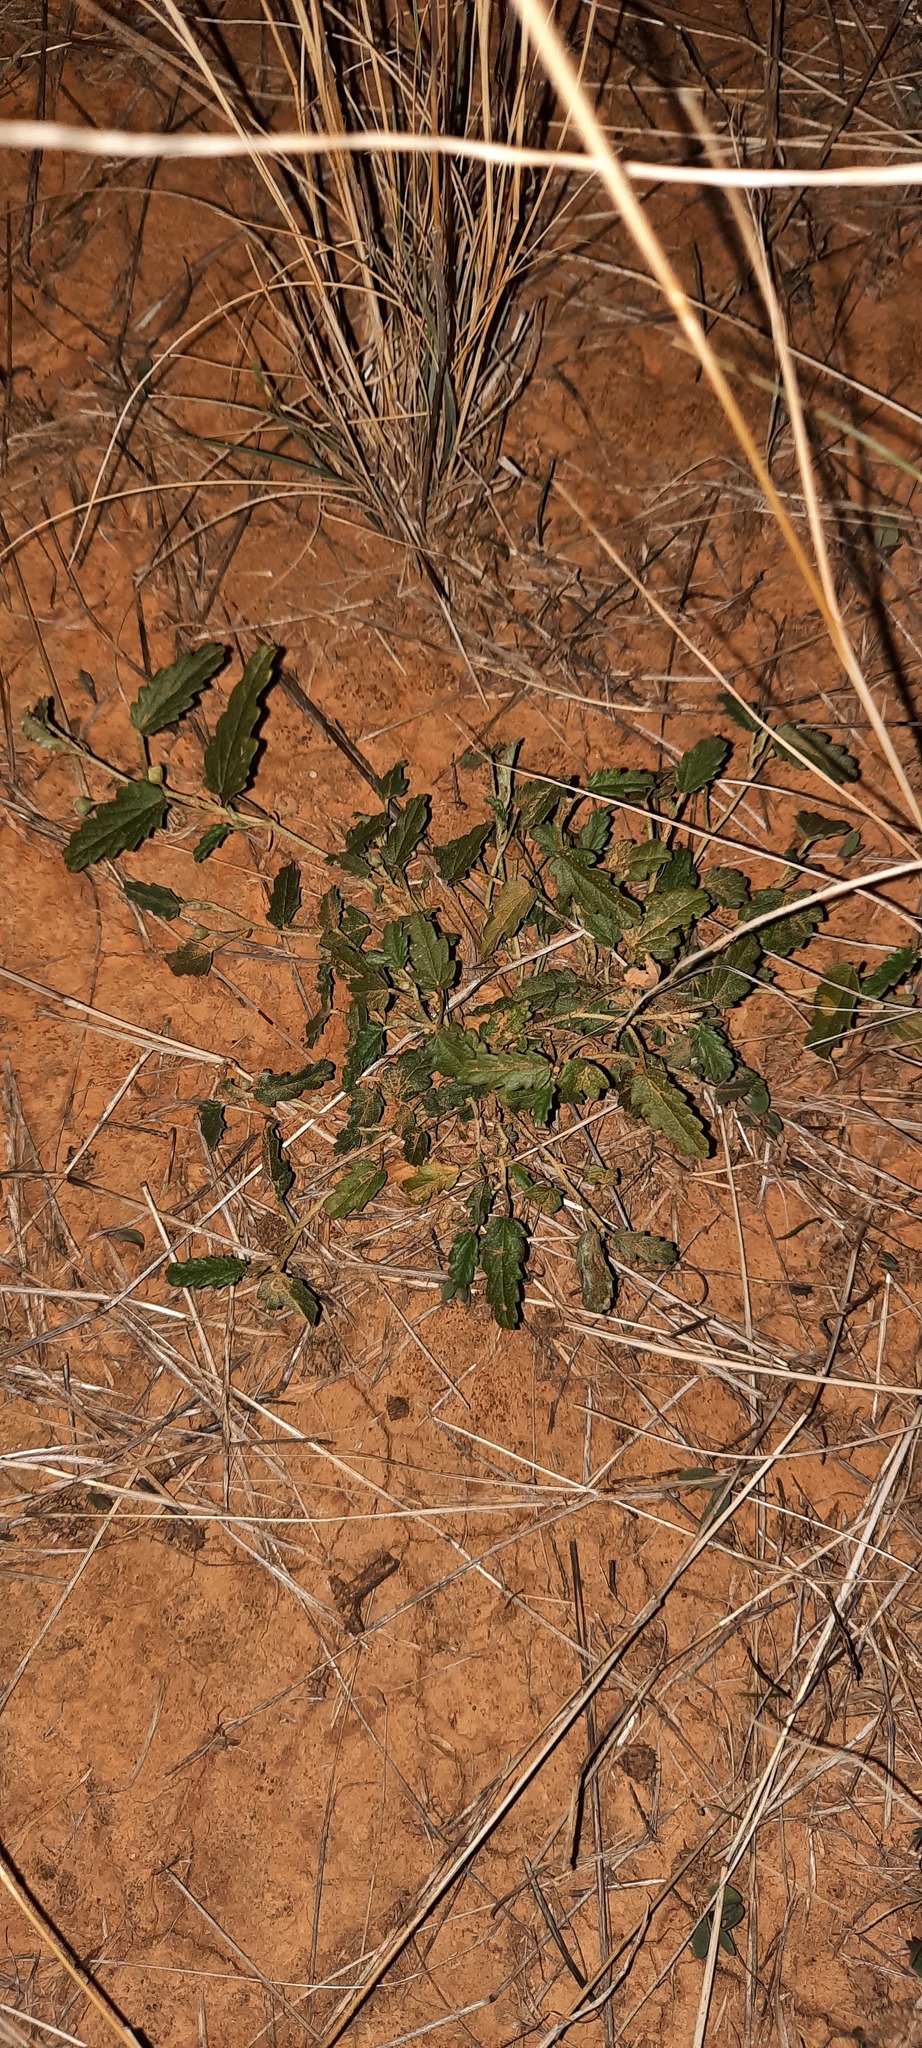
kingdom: Plantae
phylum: Tracheophyta
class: Magnoliopsida
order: Malvales
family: Malvaceae
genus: Sida
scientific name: Sida corrugata
